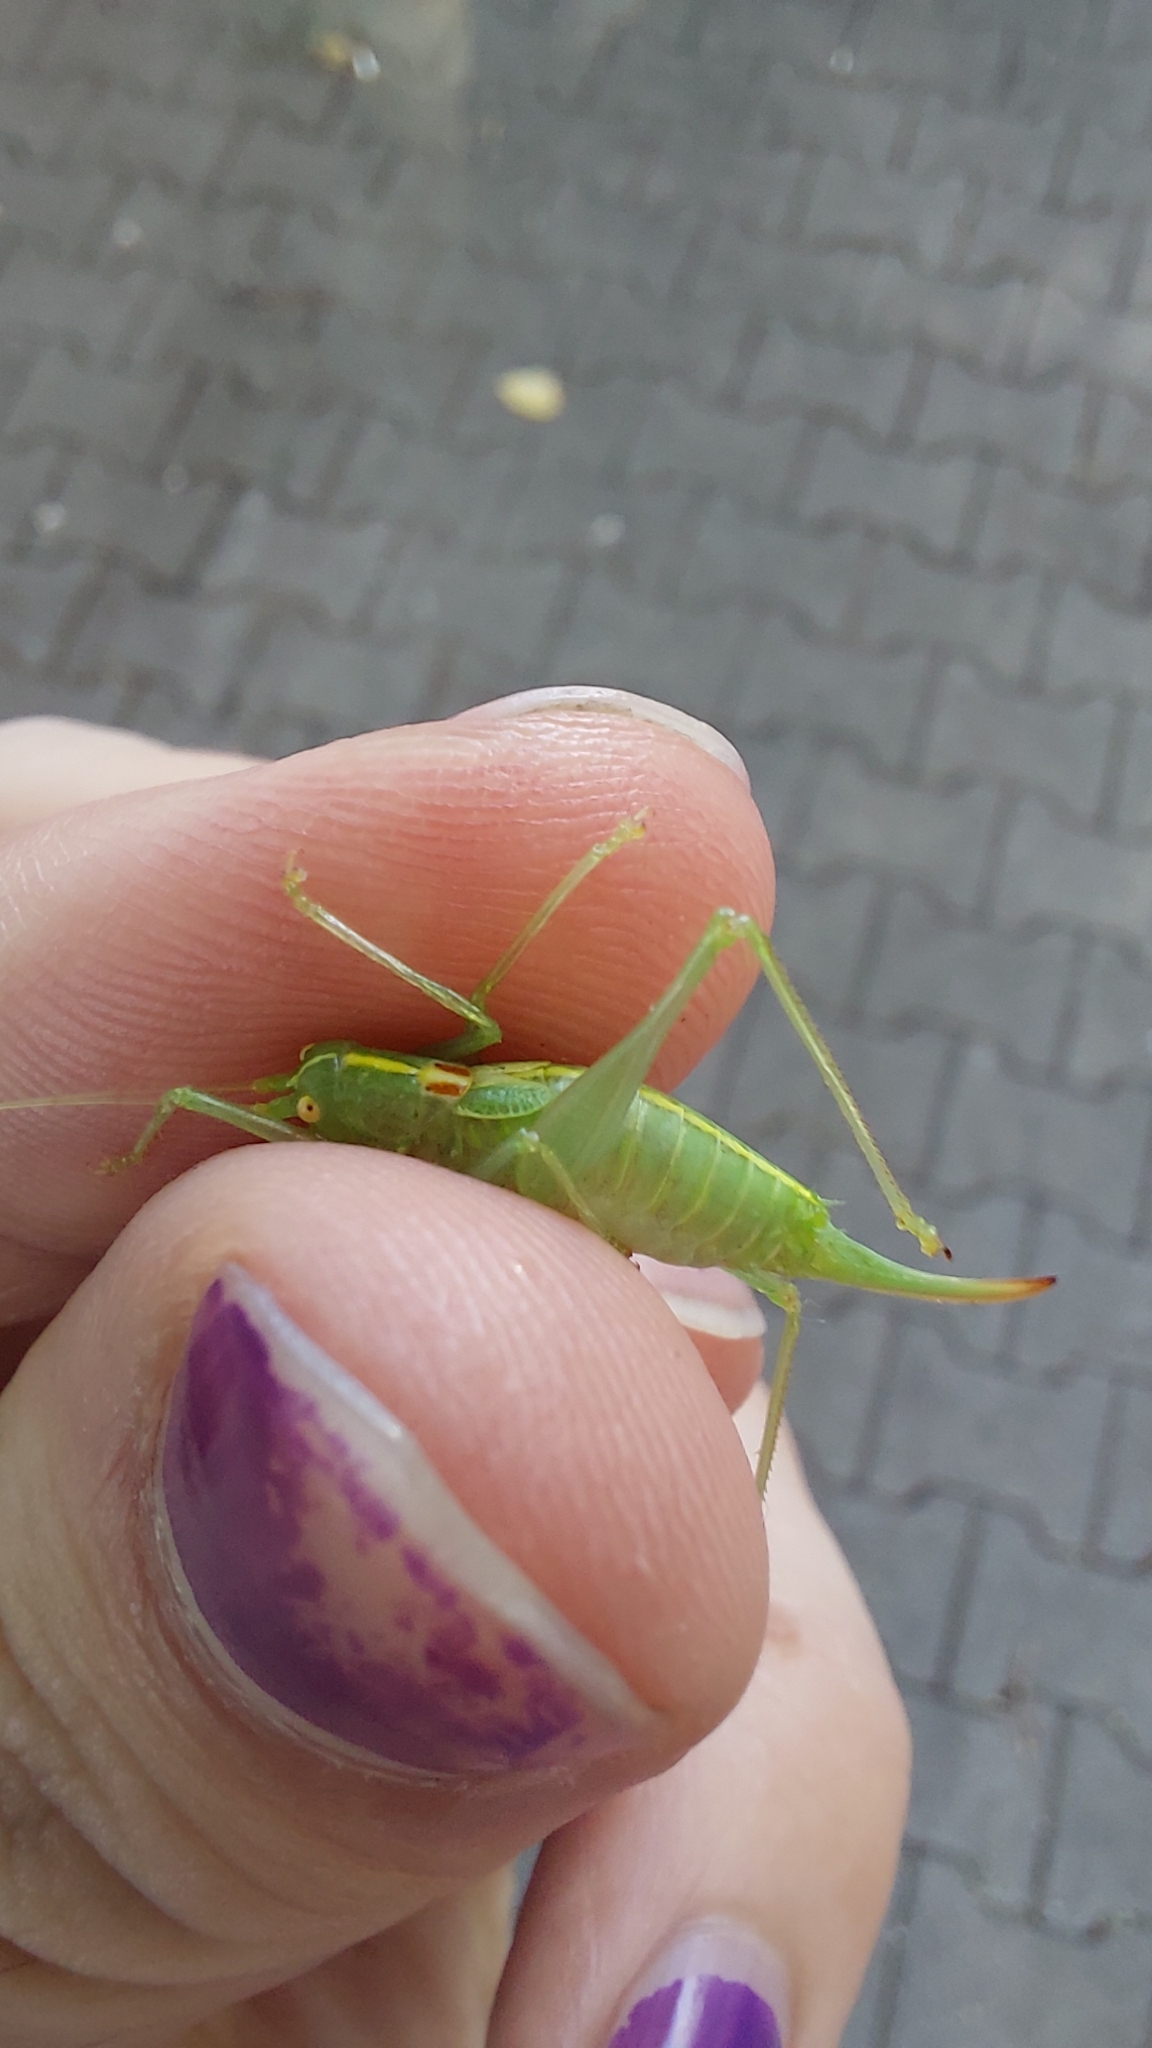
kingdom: Animalia
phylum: Arthropoda
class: Insecta
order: Orthoptera
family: Tettigoniidae
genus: Meconema
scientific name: Meconema meridionale
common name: Southern oak bush-cricket
